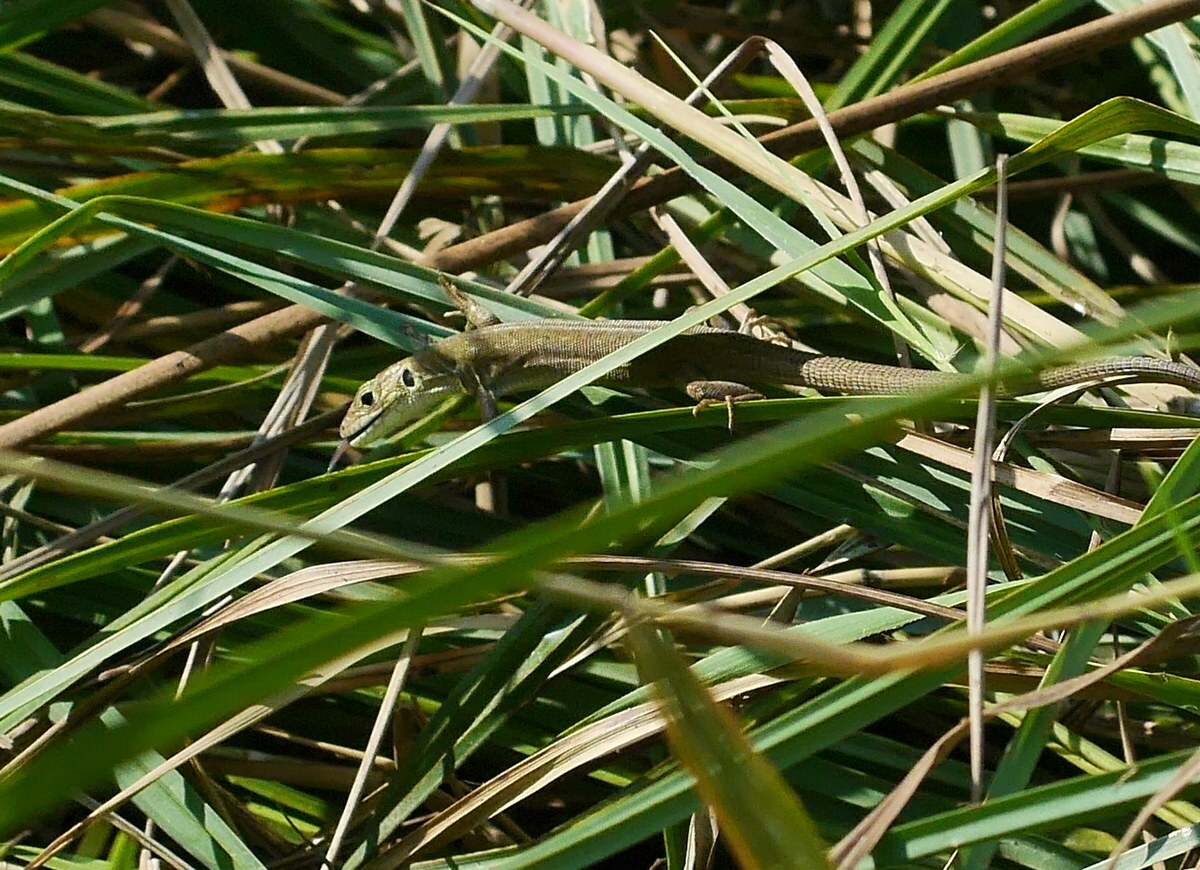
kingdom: Animalia
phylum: Chordata
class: Squamata
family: Lacertidae
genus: Lacerta
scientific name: Lacerta viridis
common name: European green lizard
